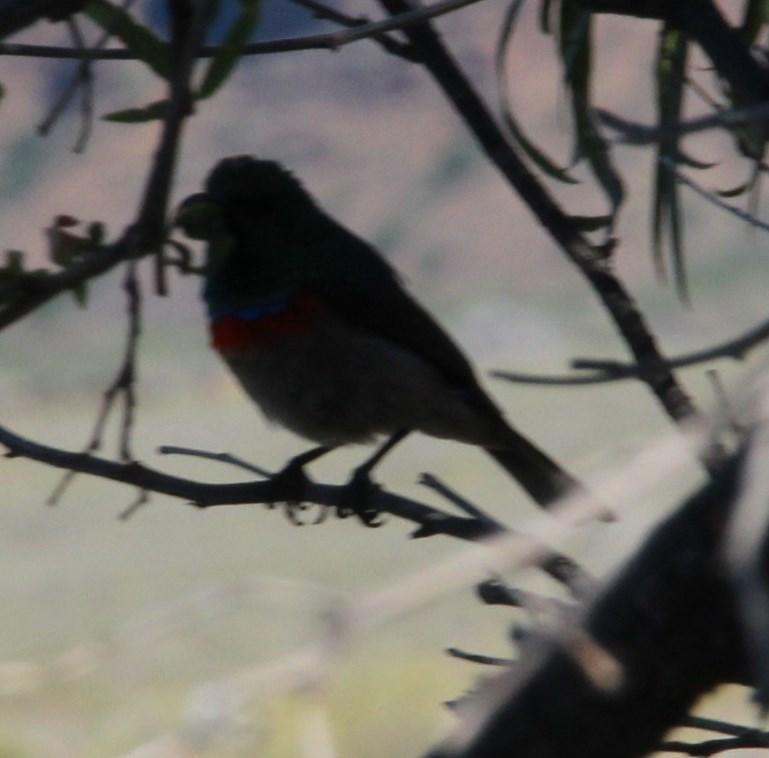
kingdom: Animalia
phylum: Chordata
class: Aves
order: Passeriformes
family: Nectariniidae
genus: Cinnyris
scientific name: Cinnyris chalybeus
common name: Southern double-collared sunbird
